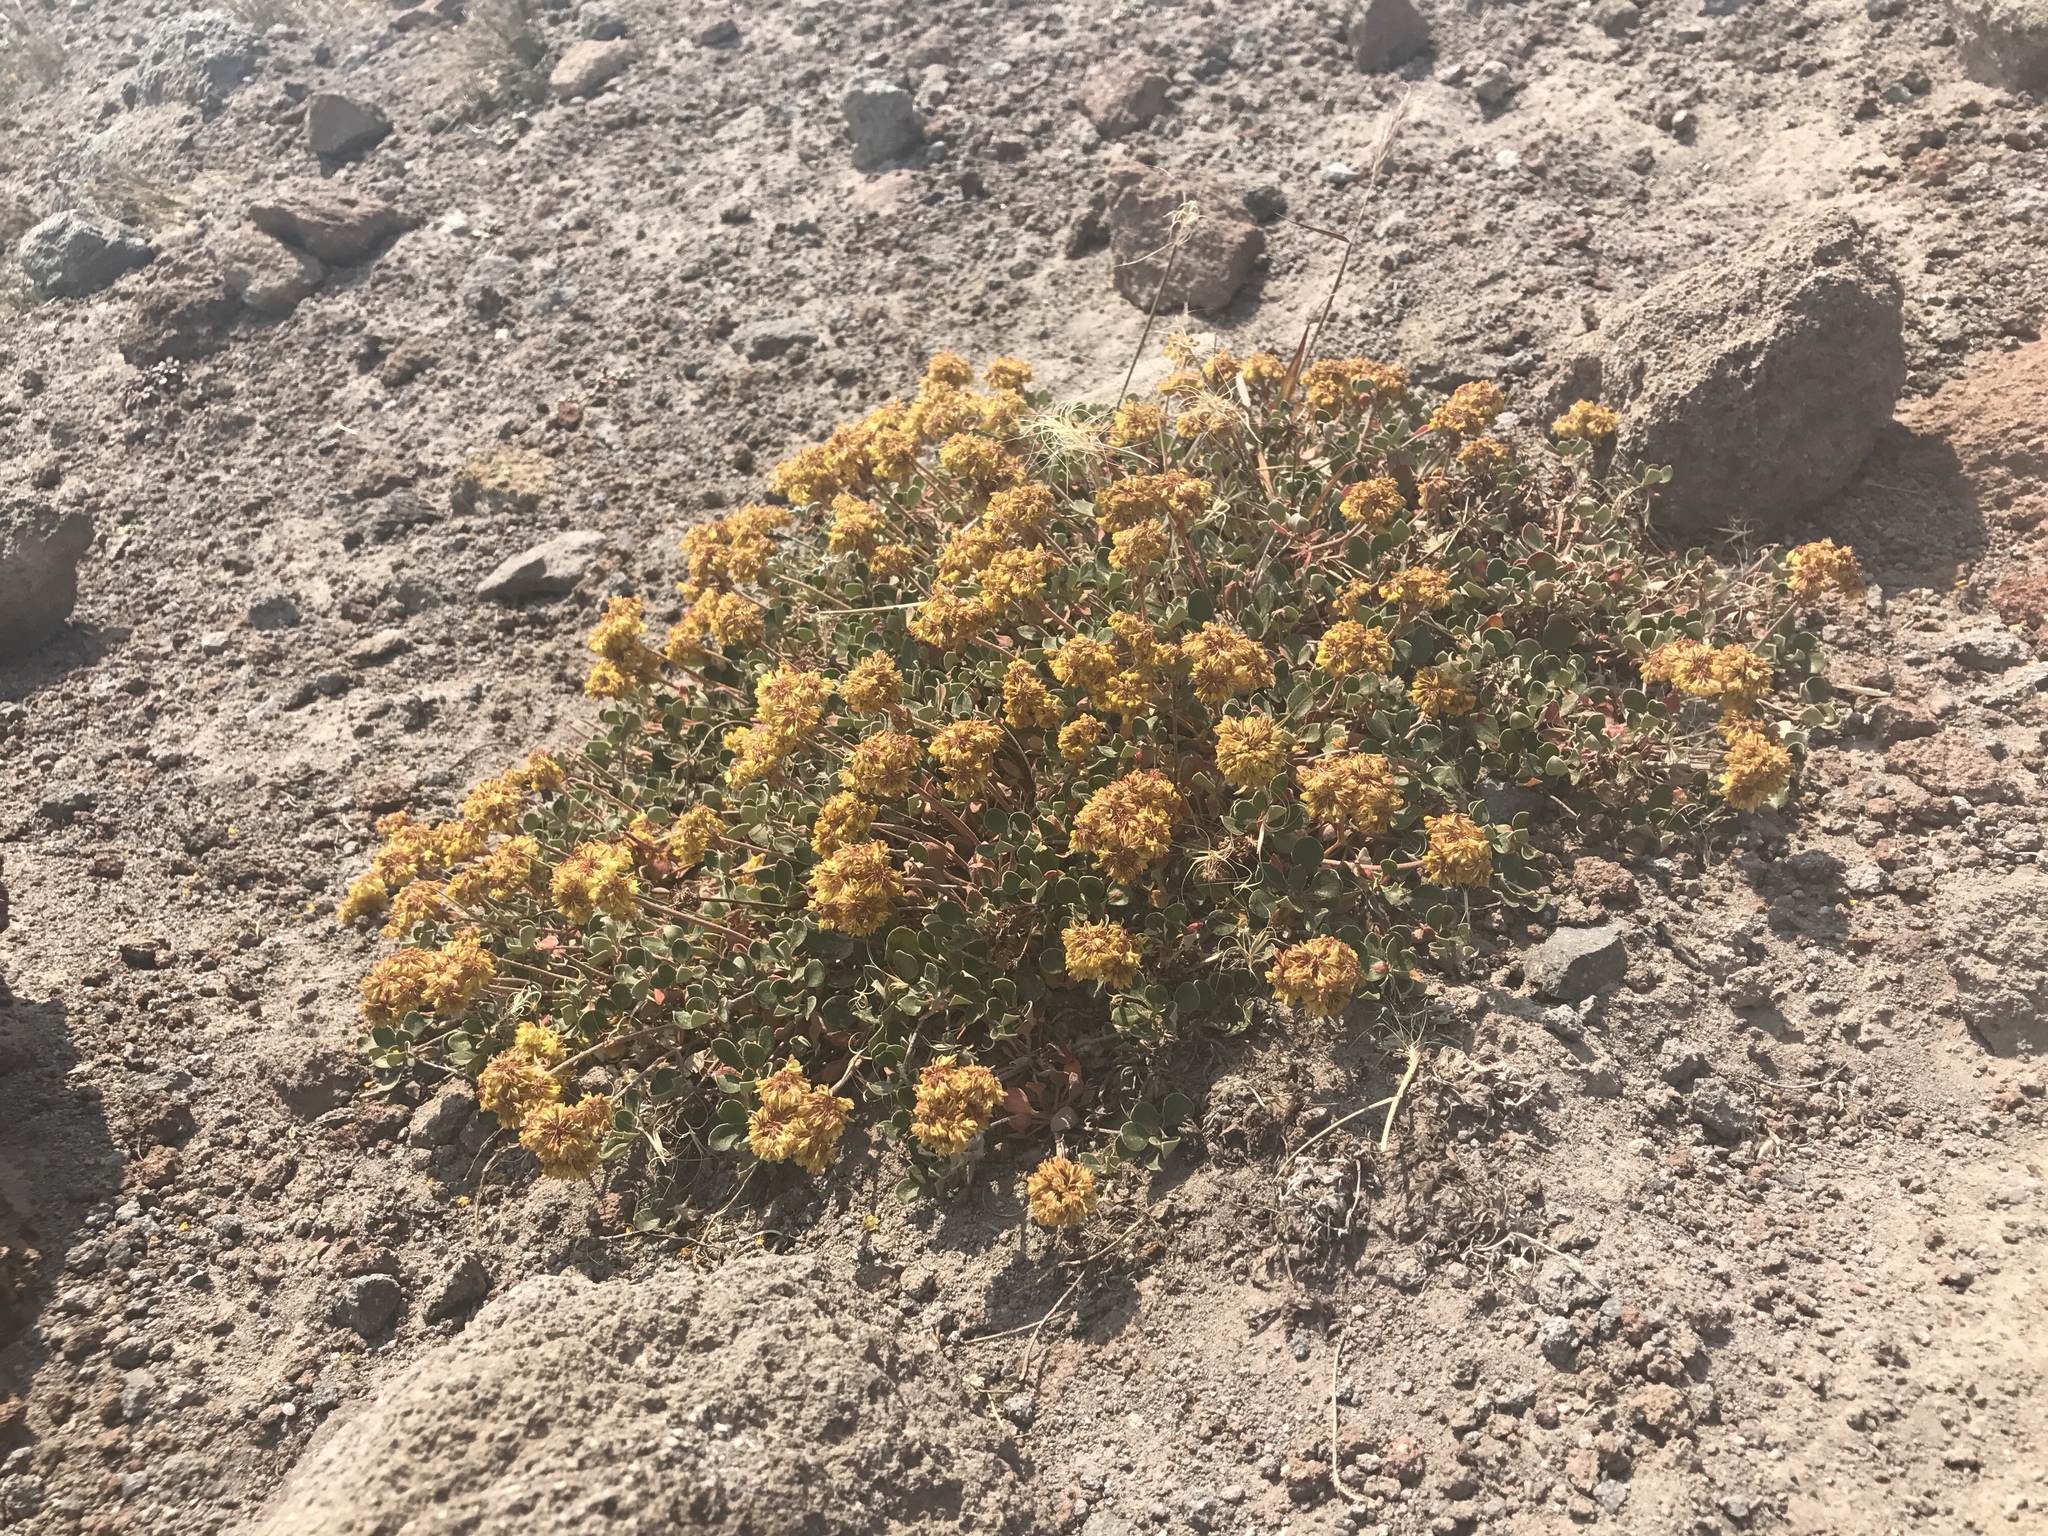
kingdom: Plantae
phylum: Tracheophyta
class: Magnoliopsida
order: Caryophyllales
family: Polygonaceae
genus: Eriogonum
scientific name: Eriogonum umbellatum
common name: Sulfur-buckwheat
